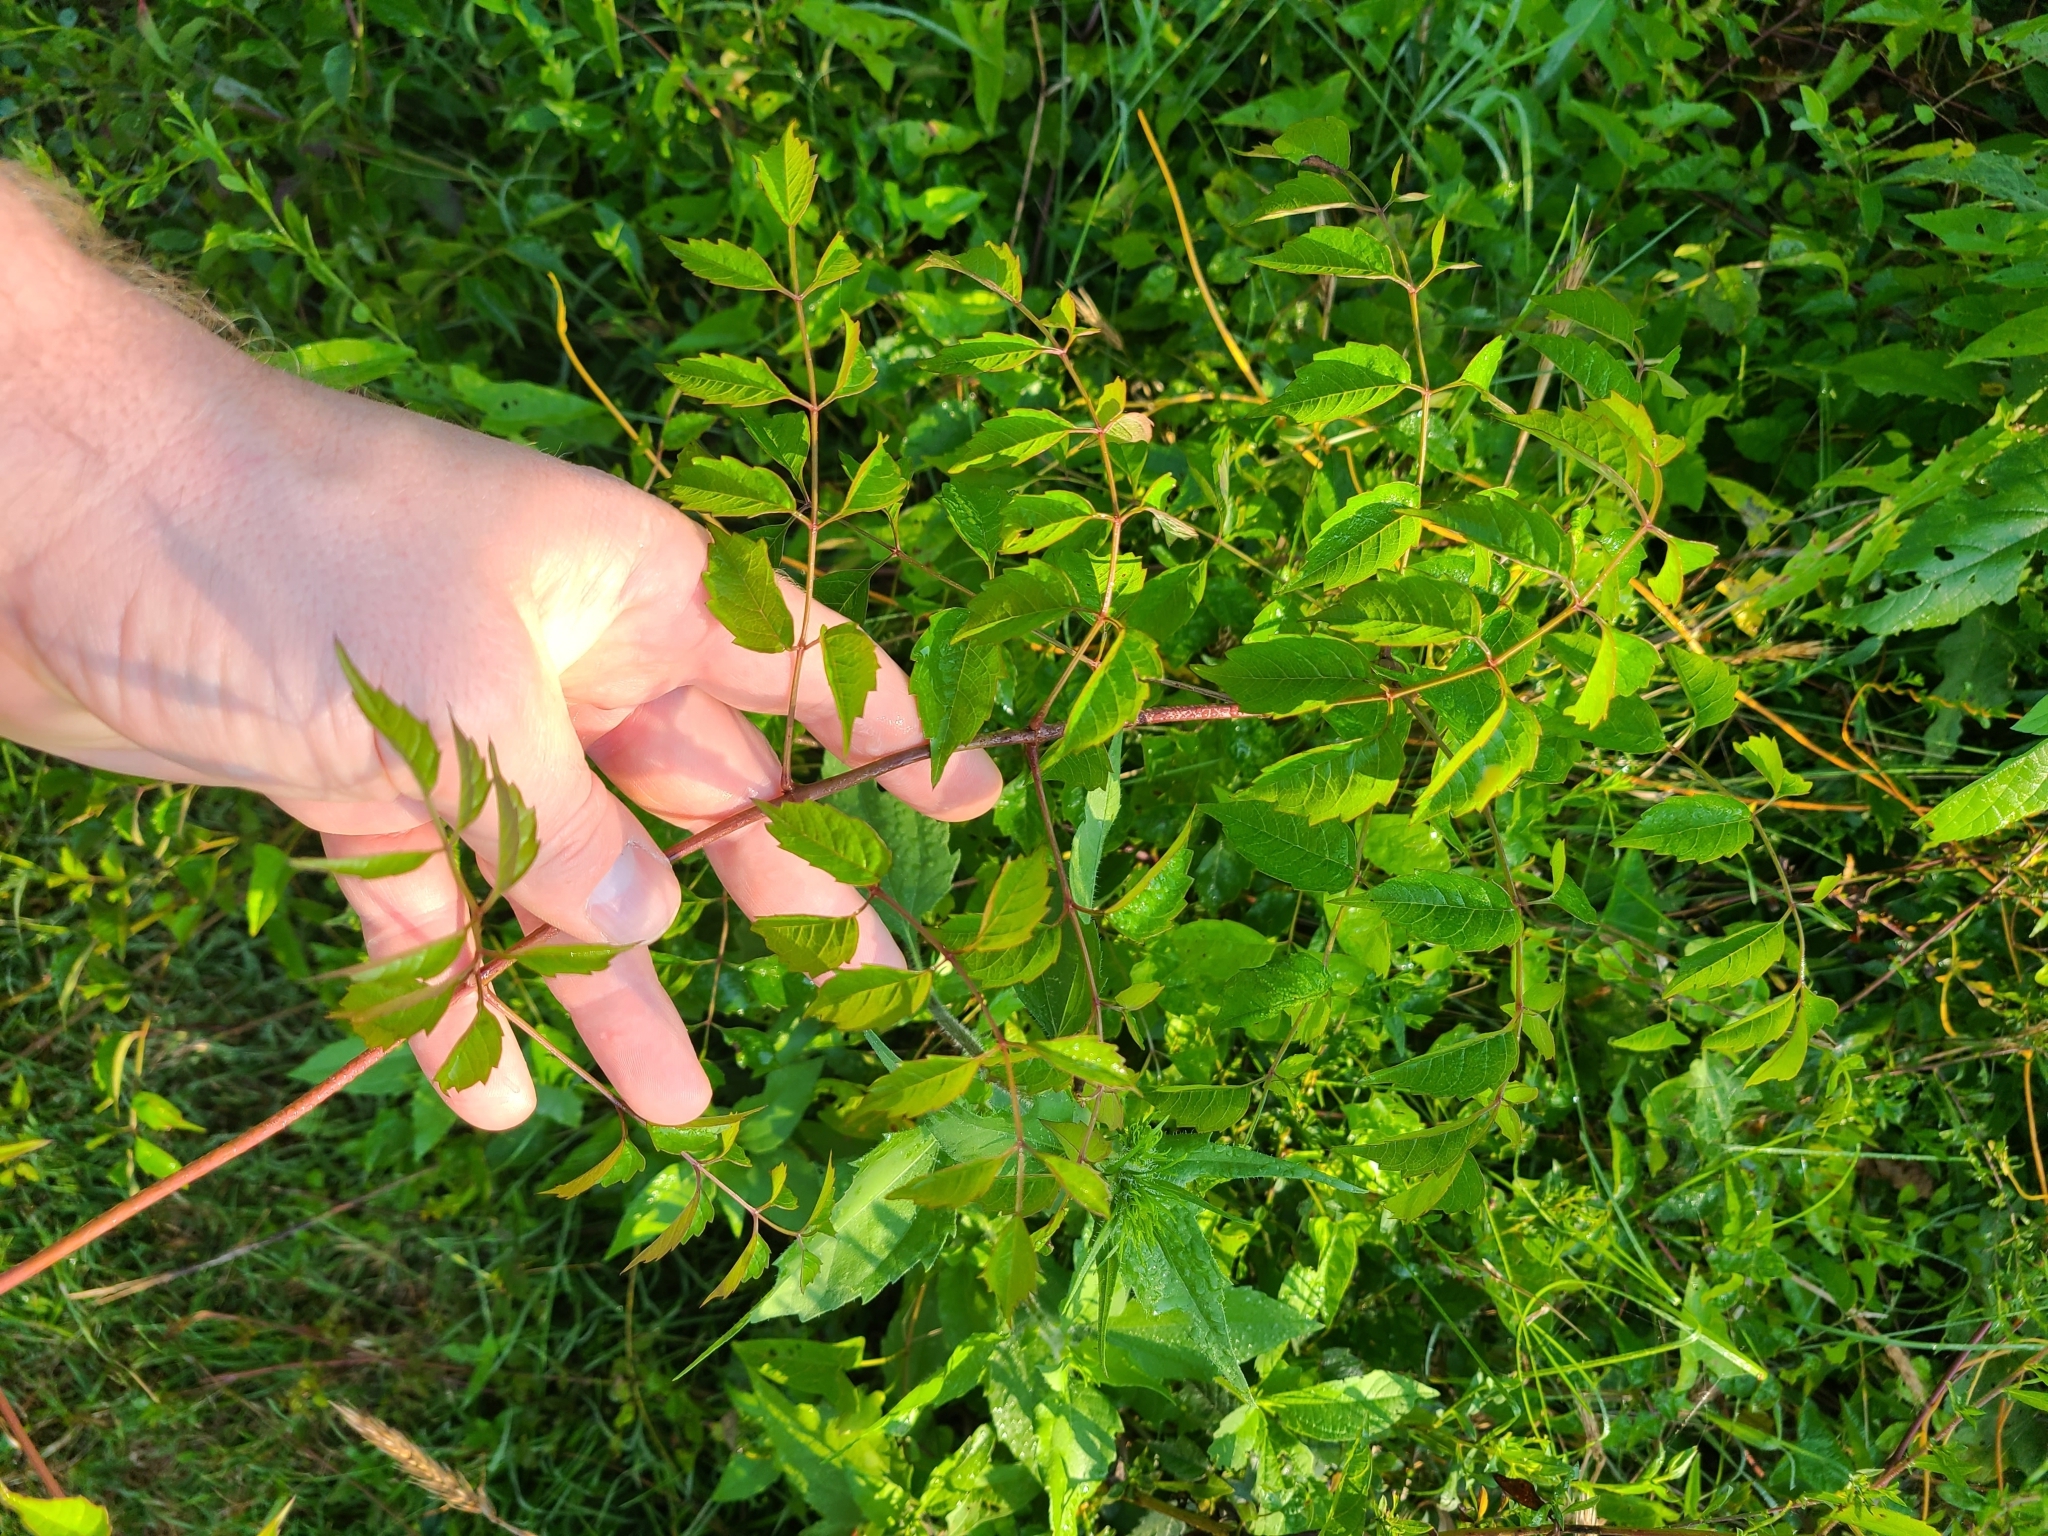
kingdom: Plantae
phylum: Tracheophyta
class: Magnoliopsida
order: Lamiales
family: Bignoniaceae
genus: Campsis
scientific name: Campsis radicans
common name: Trumpet-creeper
